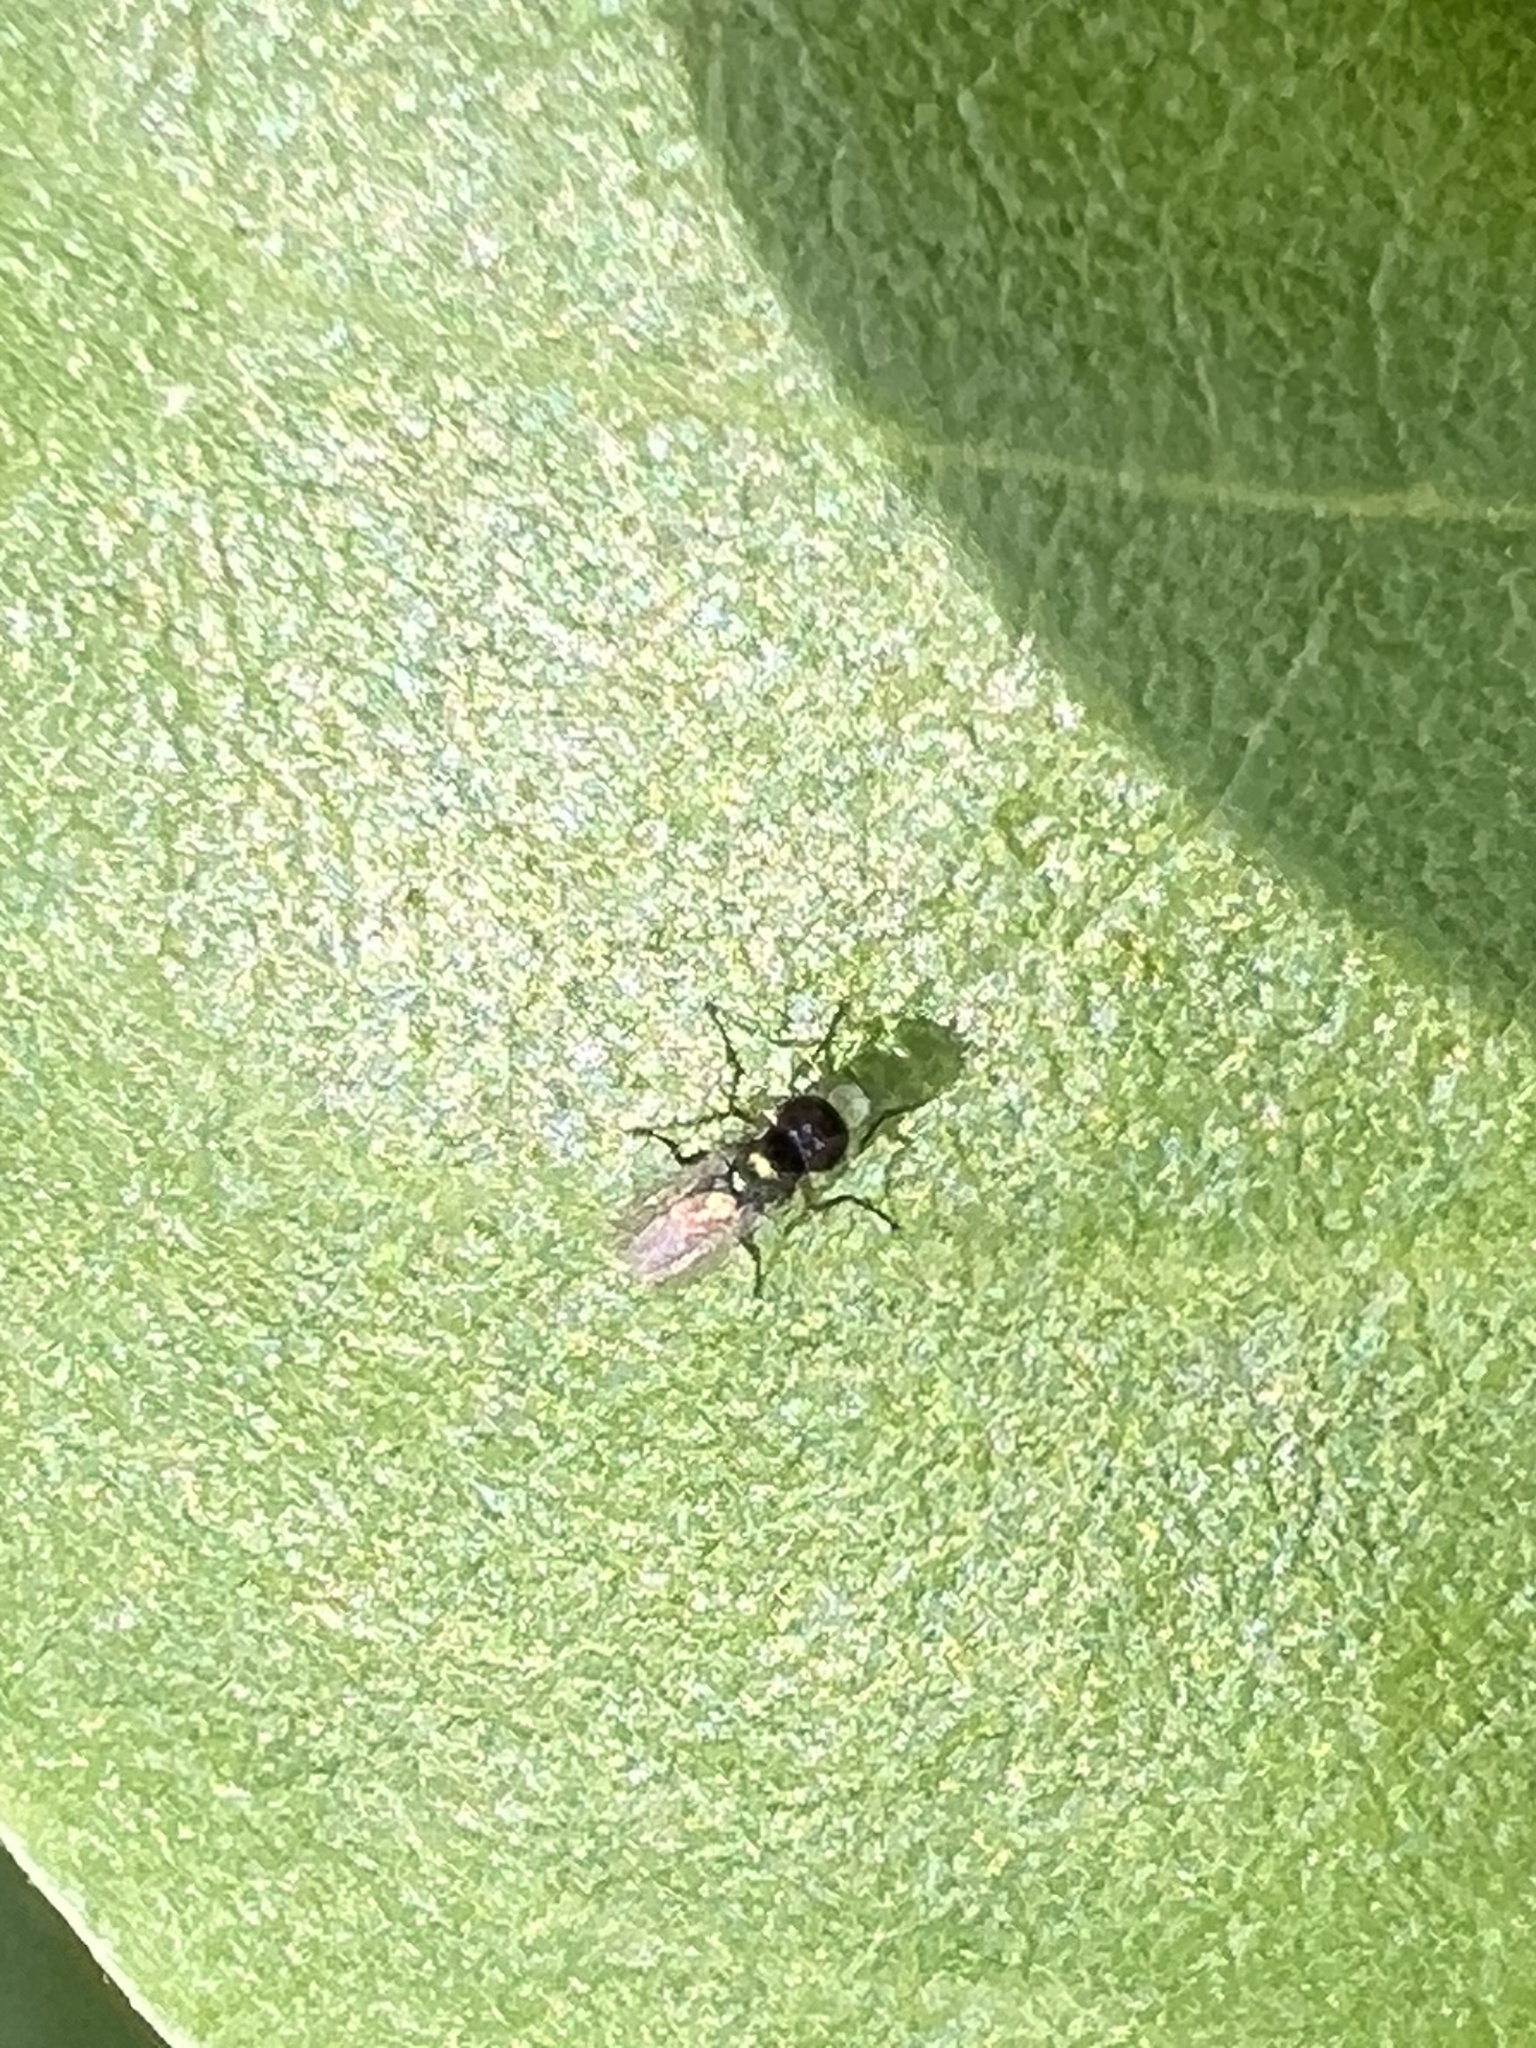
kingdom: Animalia
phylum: Arthropoda
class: Insecta
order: Diptera
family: Dolichopodidae
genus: Chrysotus
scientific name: Chrysotus crosbyi
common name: Longlegged fly
